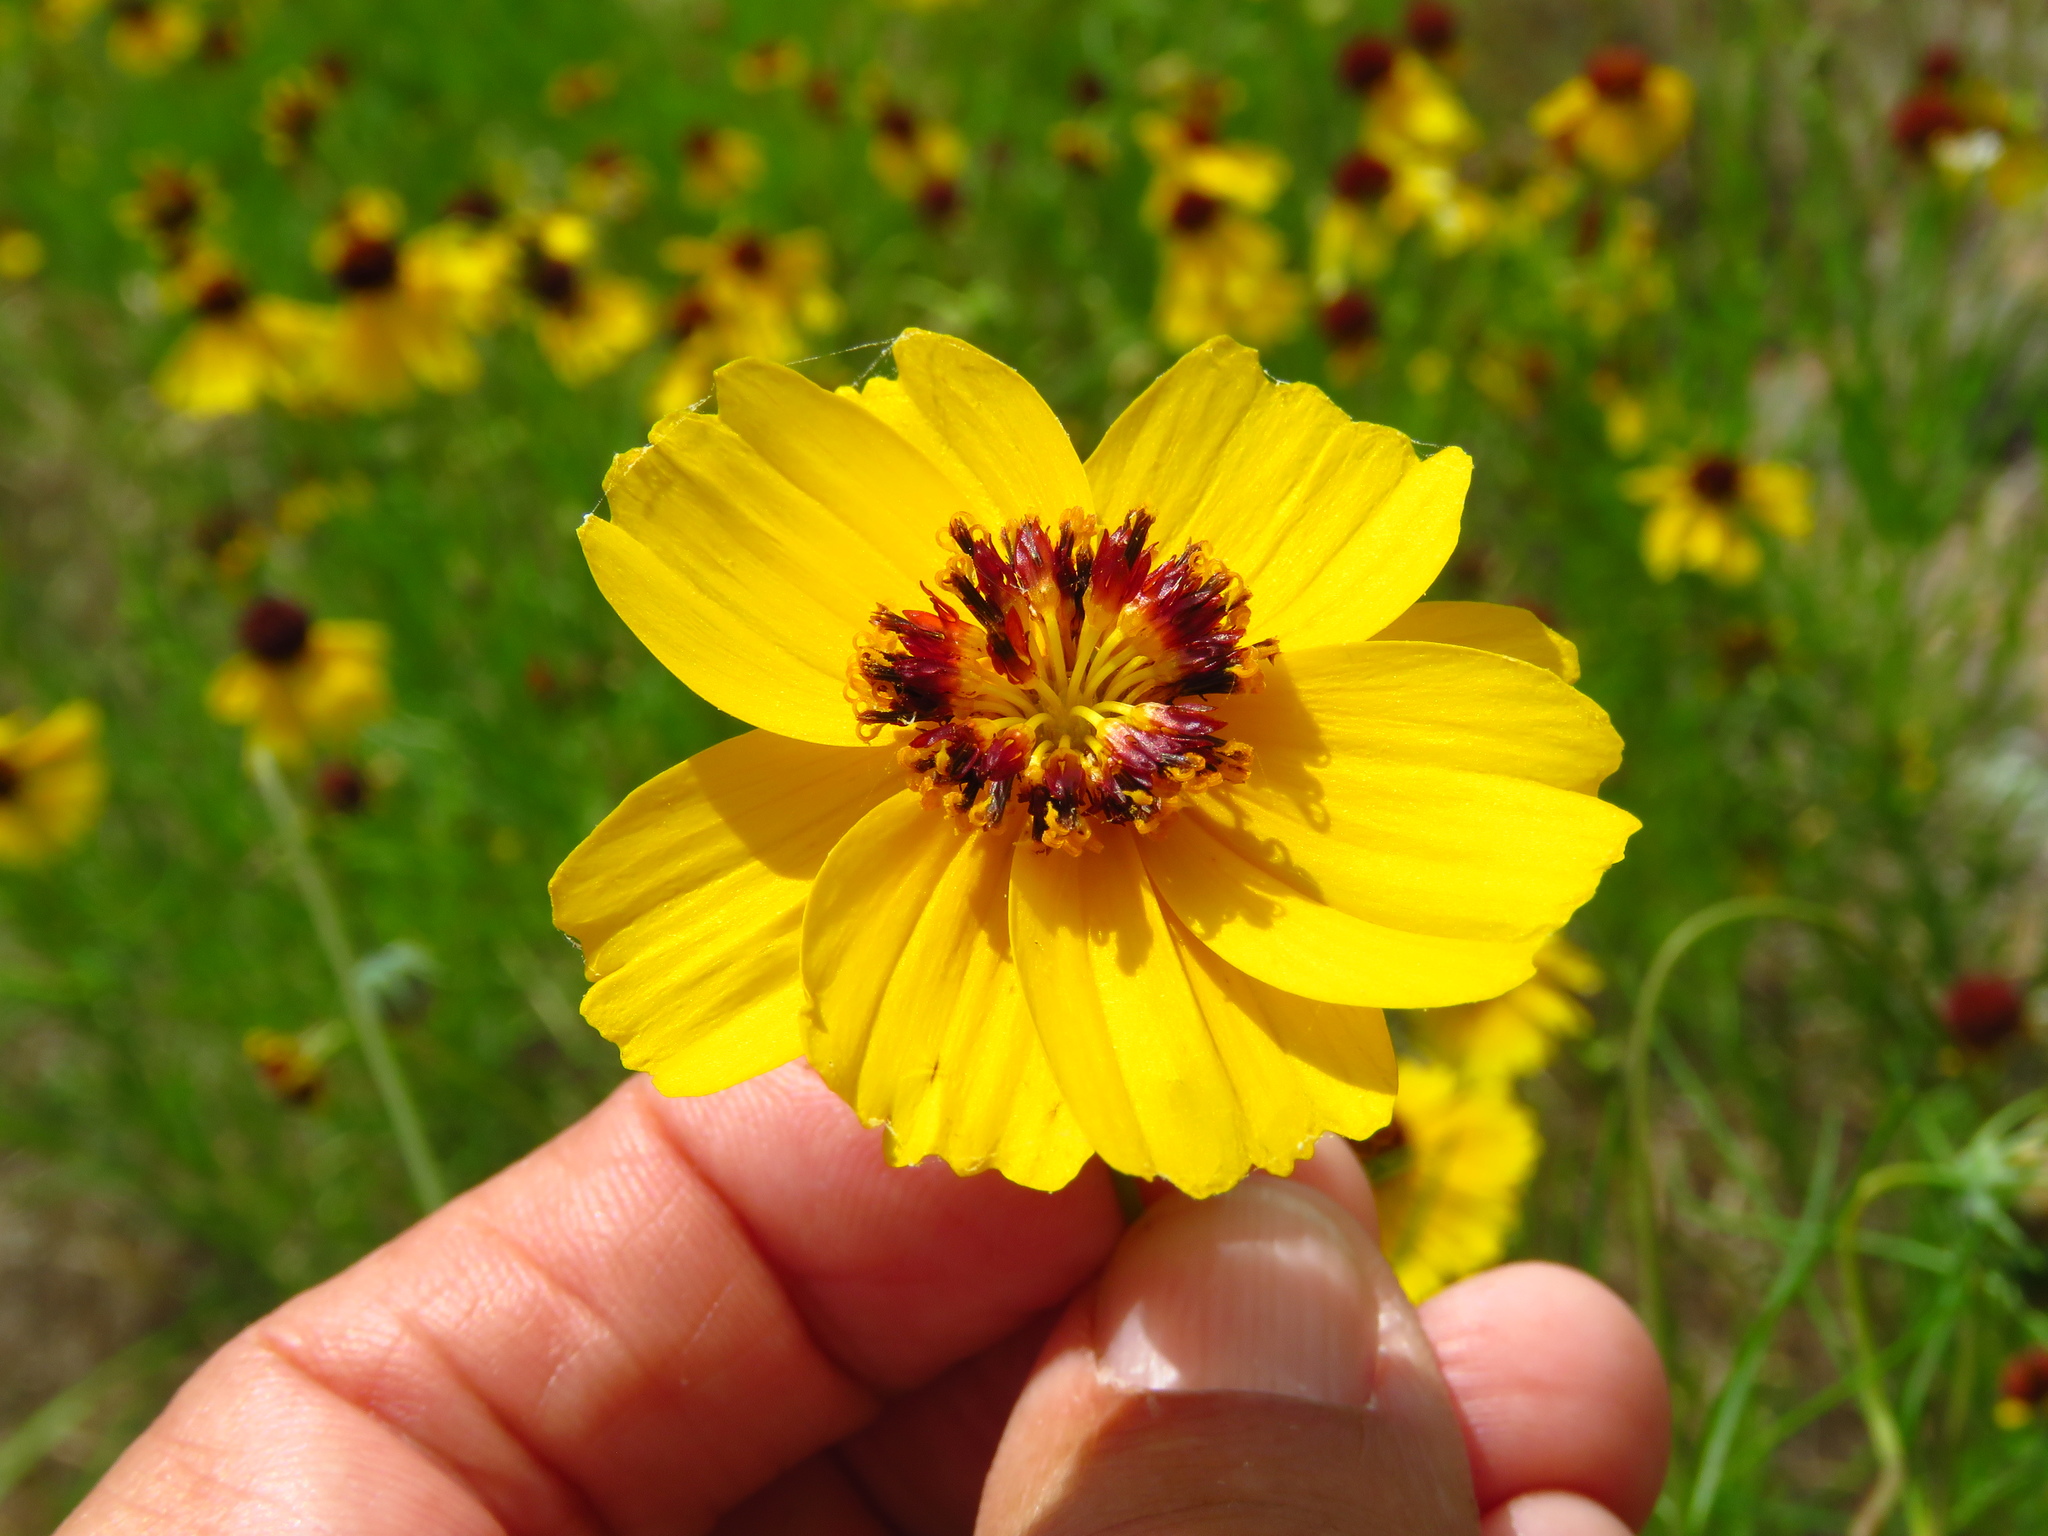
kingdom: Plantae
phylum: Tracheophyta
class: Magnoliopsida
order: Asterales
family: Asteraceae
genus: Thelesperma
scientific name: Thelesperma filifolium
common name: Stiff greenthread
